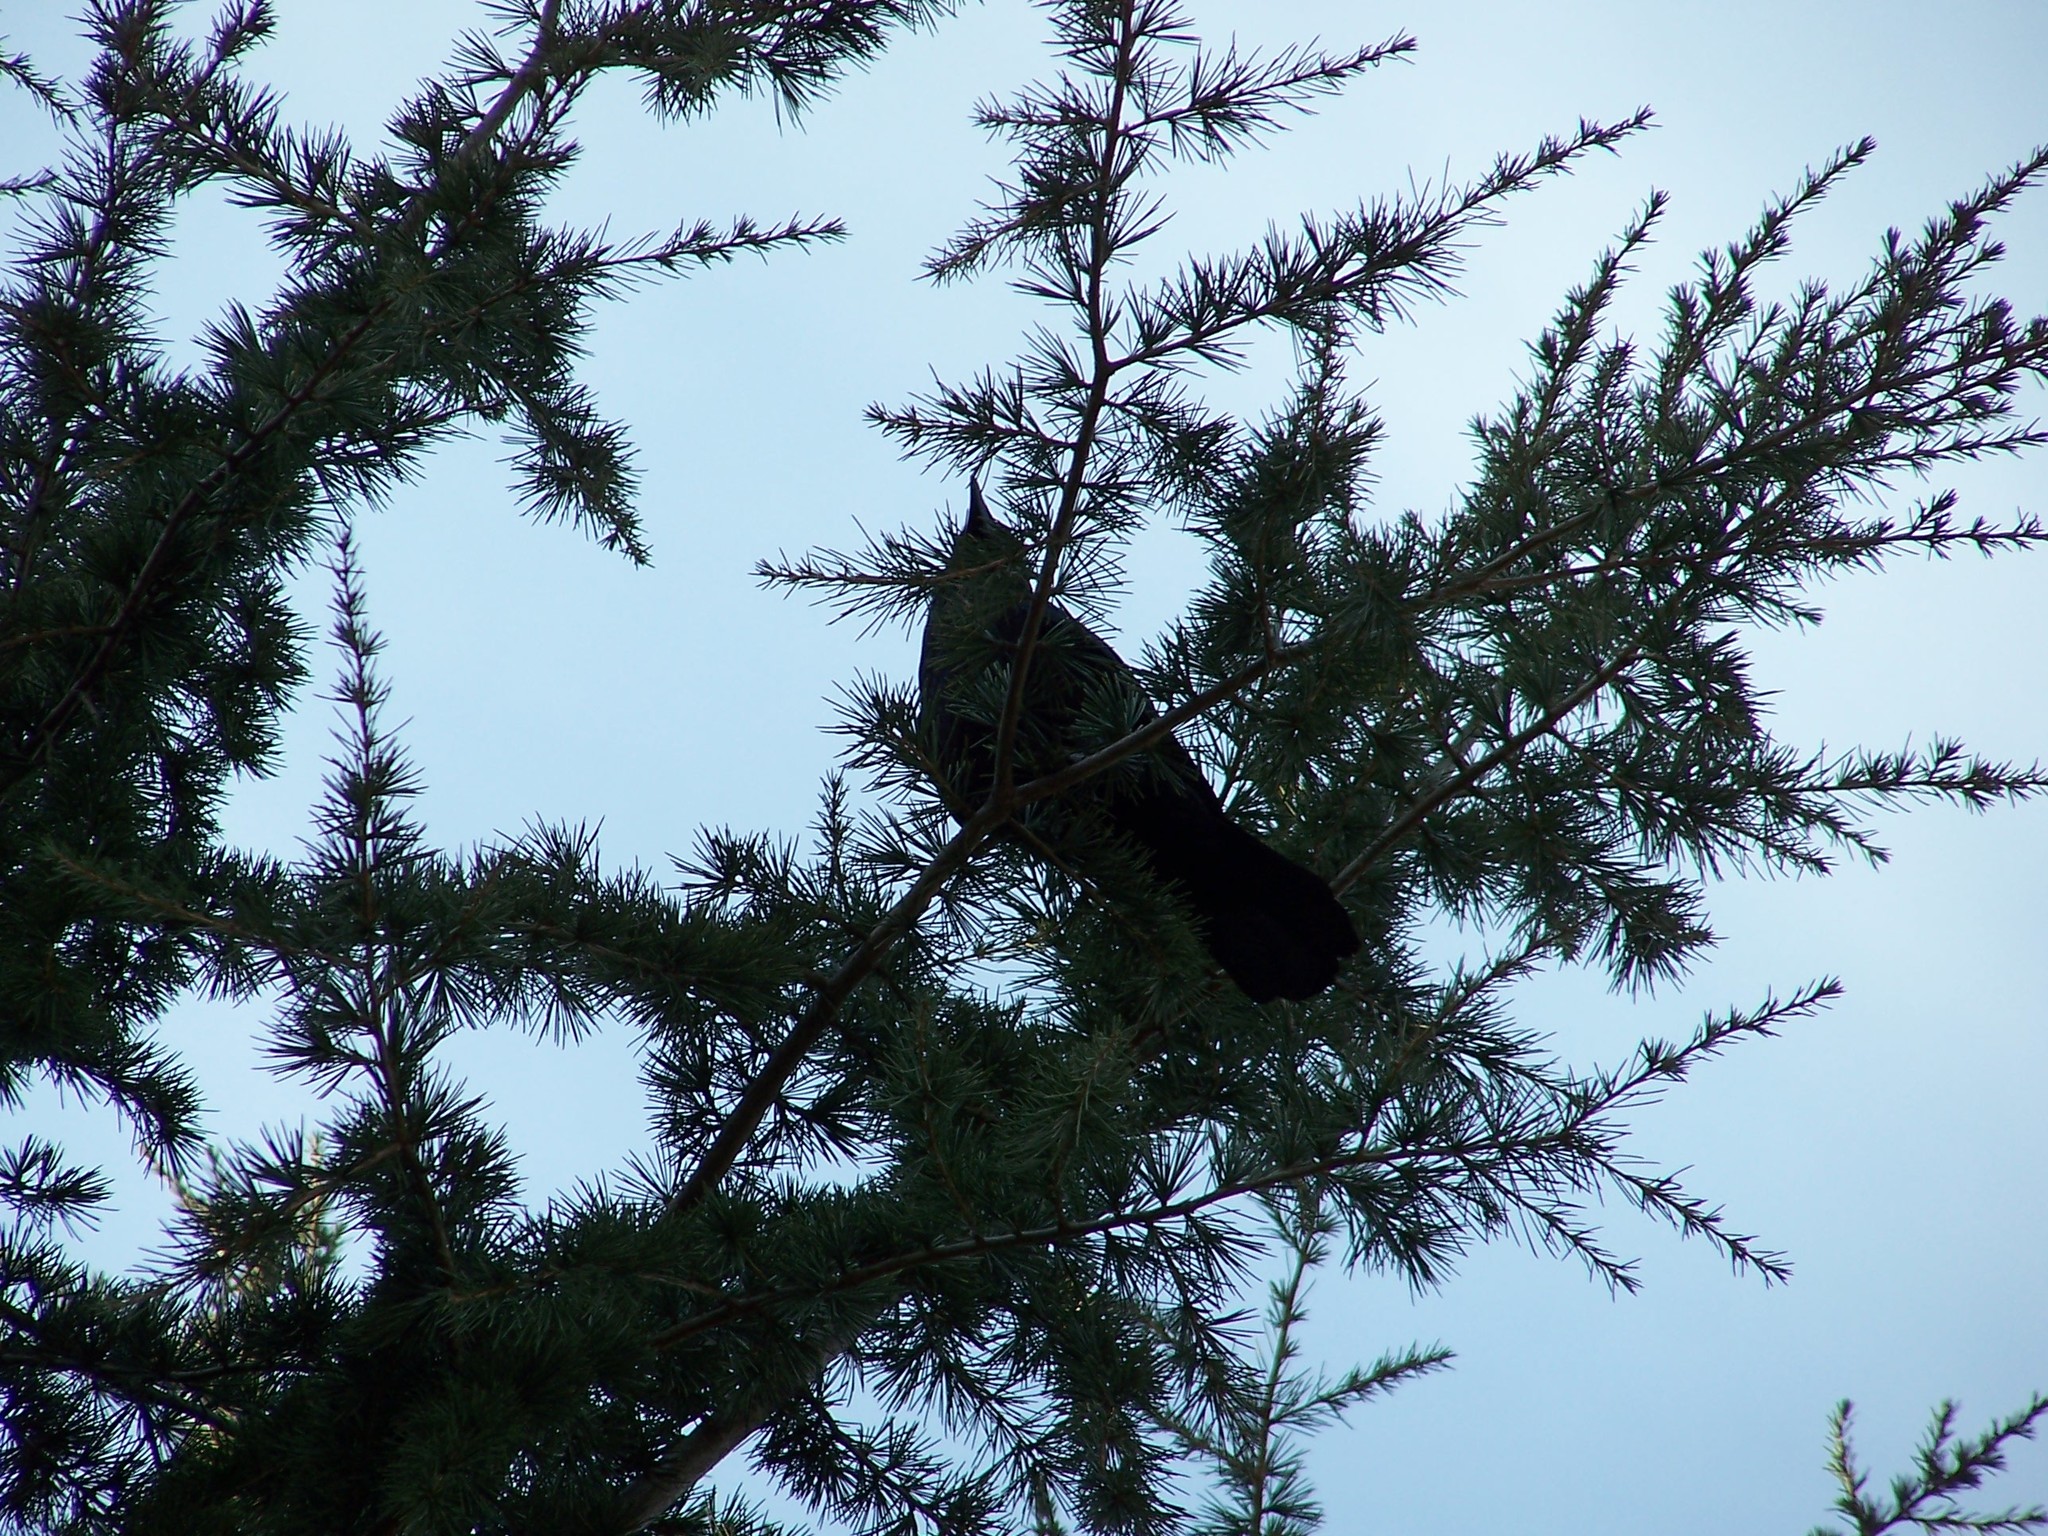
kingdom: Animalia
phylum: Chordata
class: Aves
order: Passeriformes
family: Corvidae
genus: Corvus
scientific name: Corvus brachyrhynchos
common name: American crow
